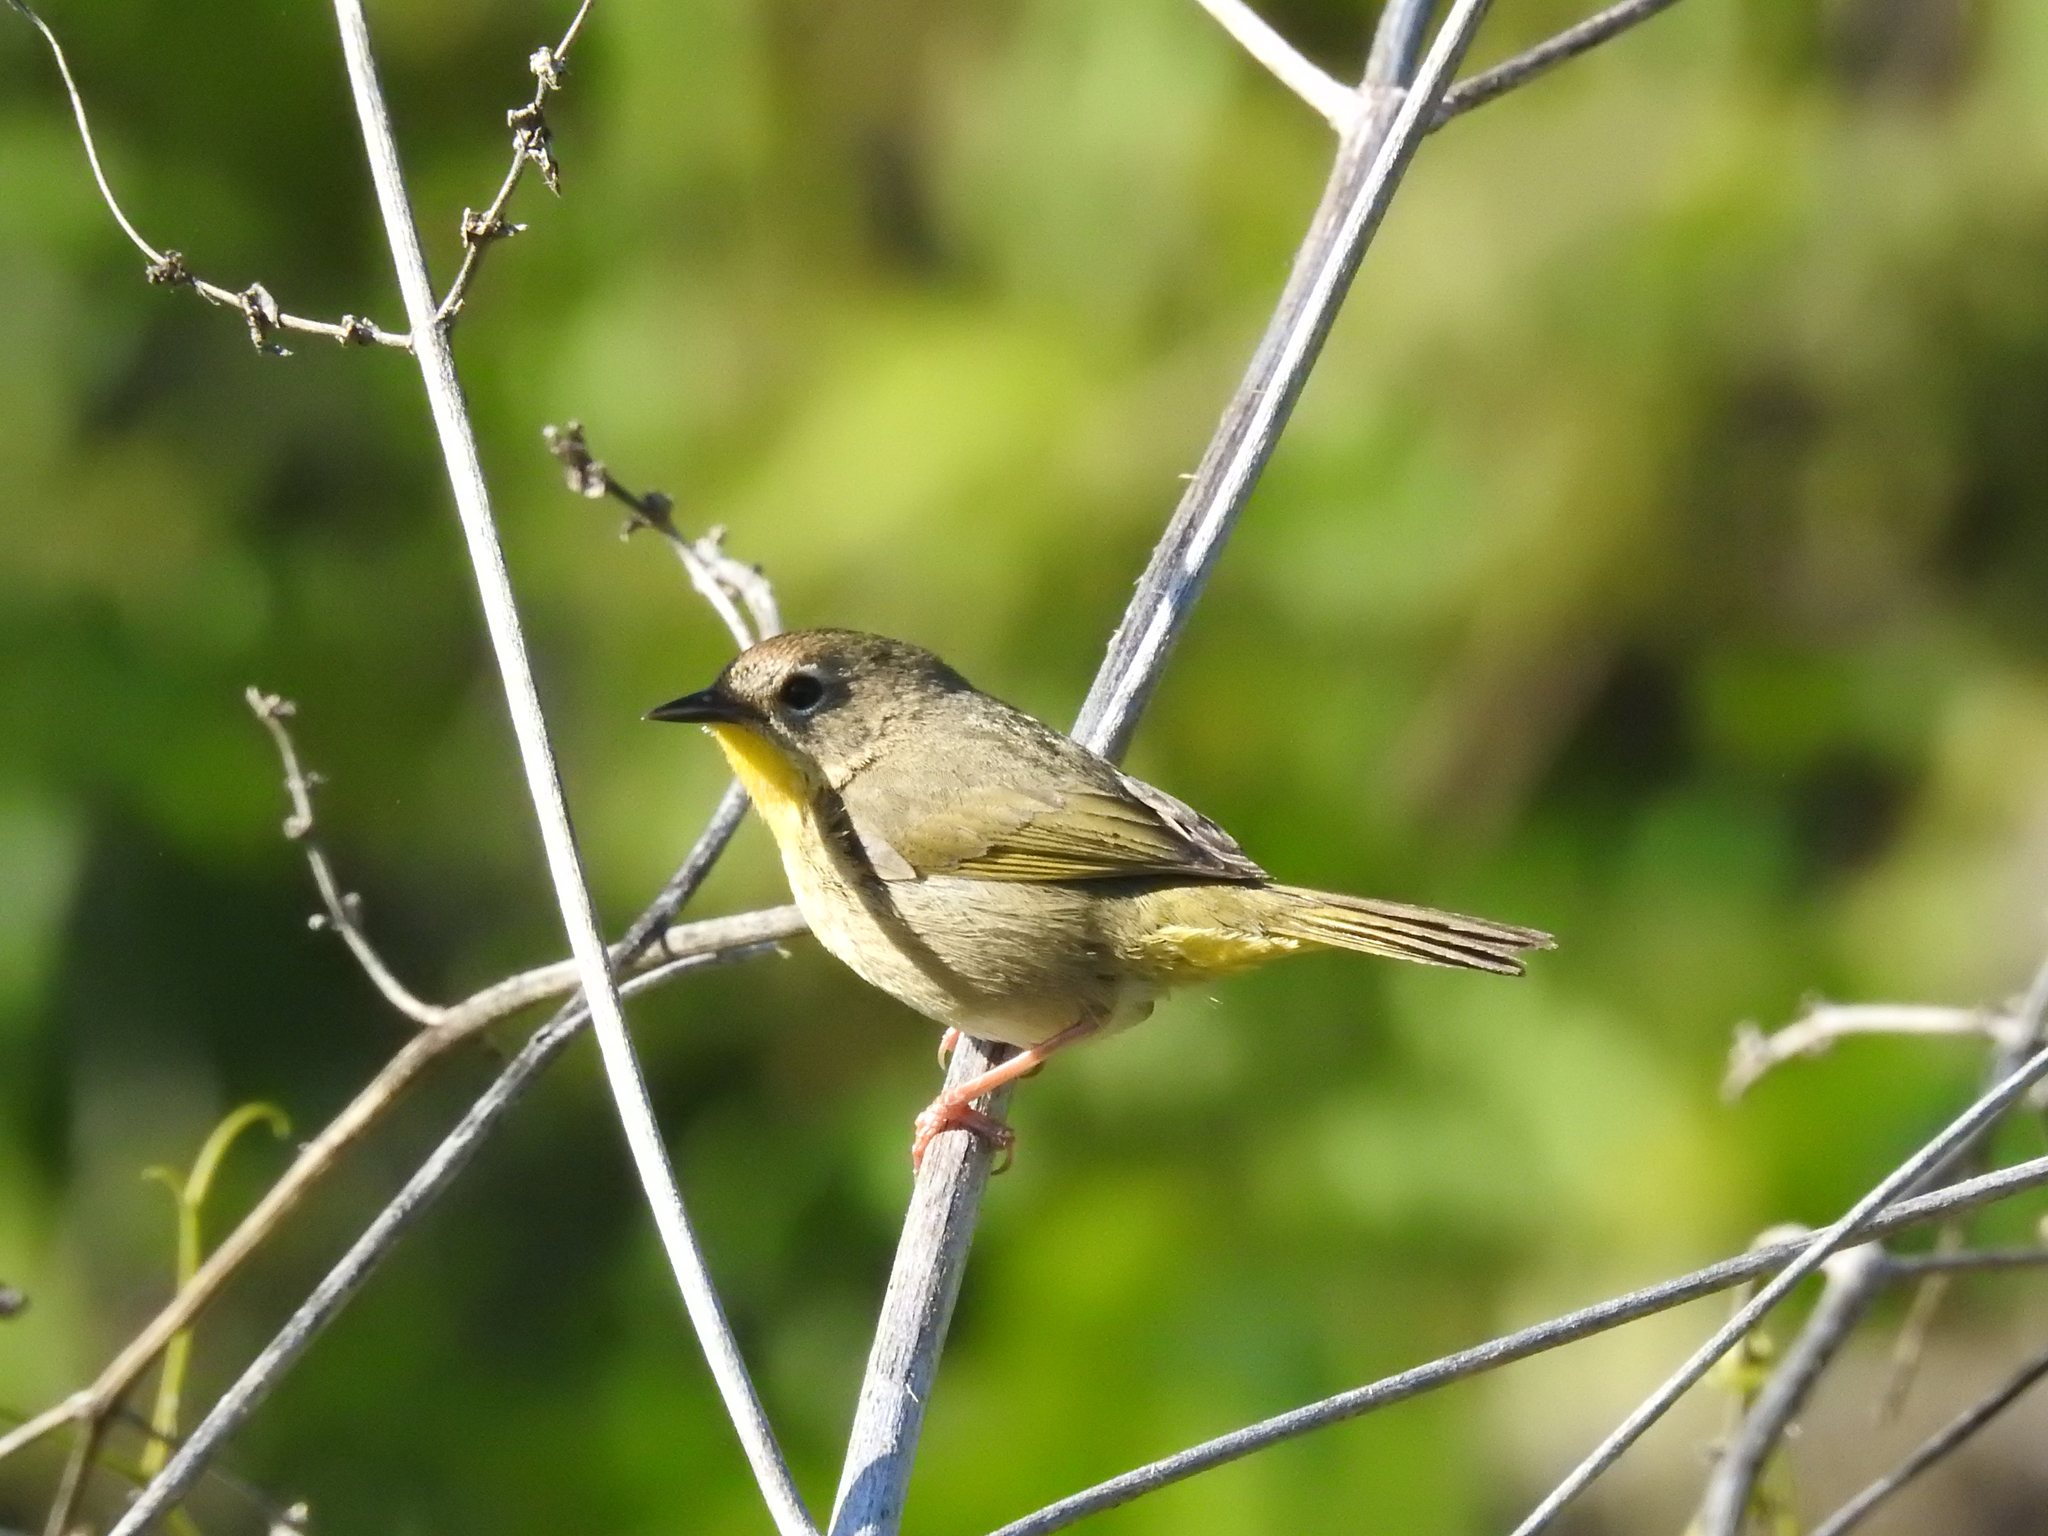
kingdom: Animalia
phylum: Chordata
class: Aves
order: Passeriformes
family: Parulidae
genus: Geothlypis
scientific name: Geothlypis trichas
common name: Common yellowthroat
